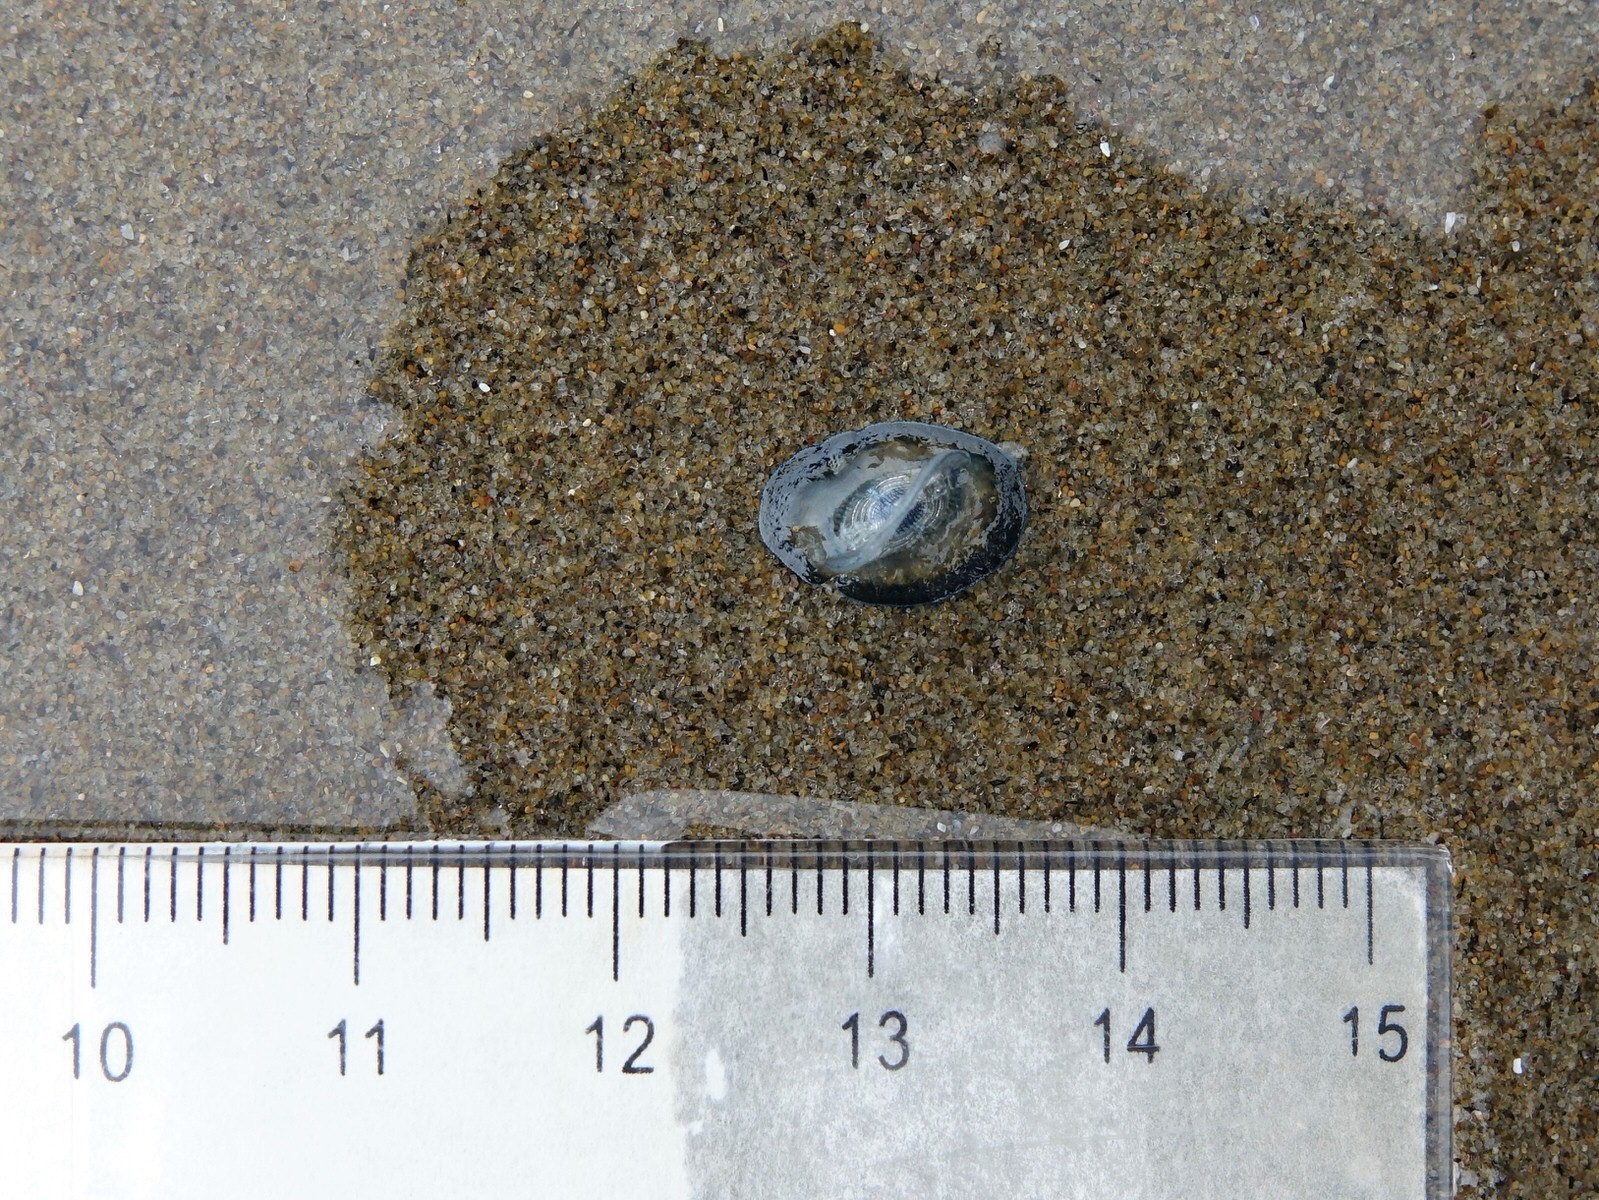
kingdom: Animalia
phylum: Cnidaria
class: Hydrozoa
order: Anthoathecata
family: Porpitidae
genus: Velella
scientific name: Velella velella
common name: By-the-wind-sailor
